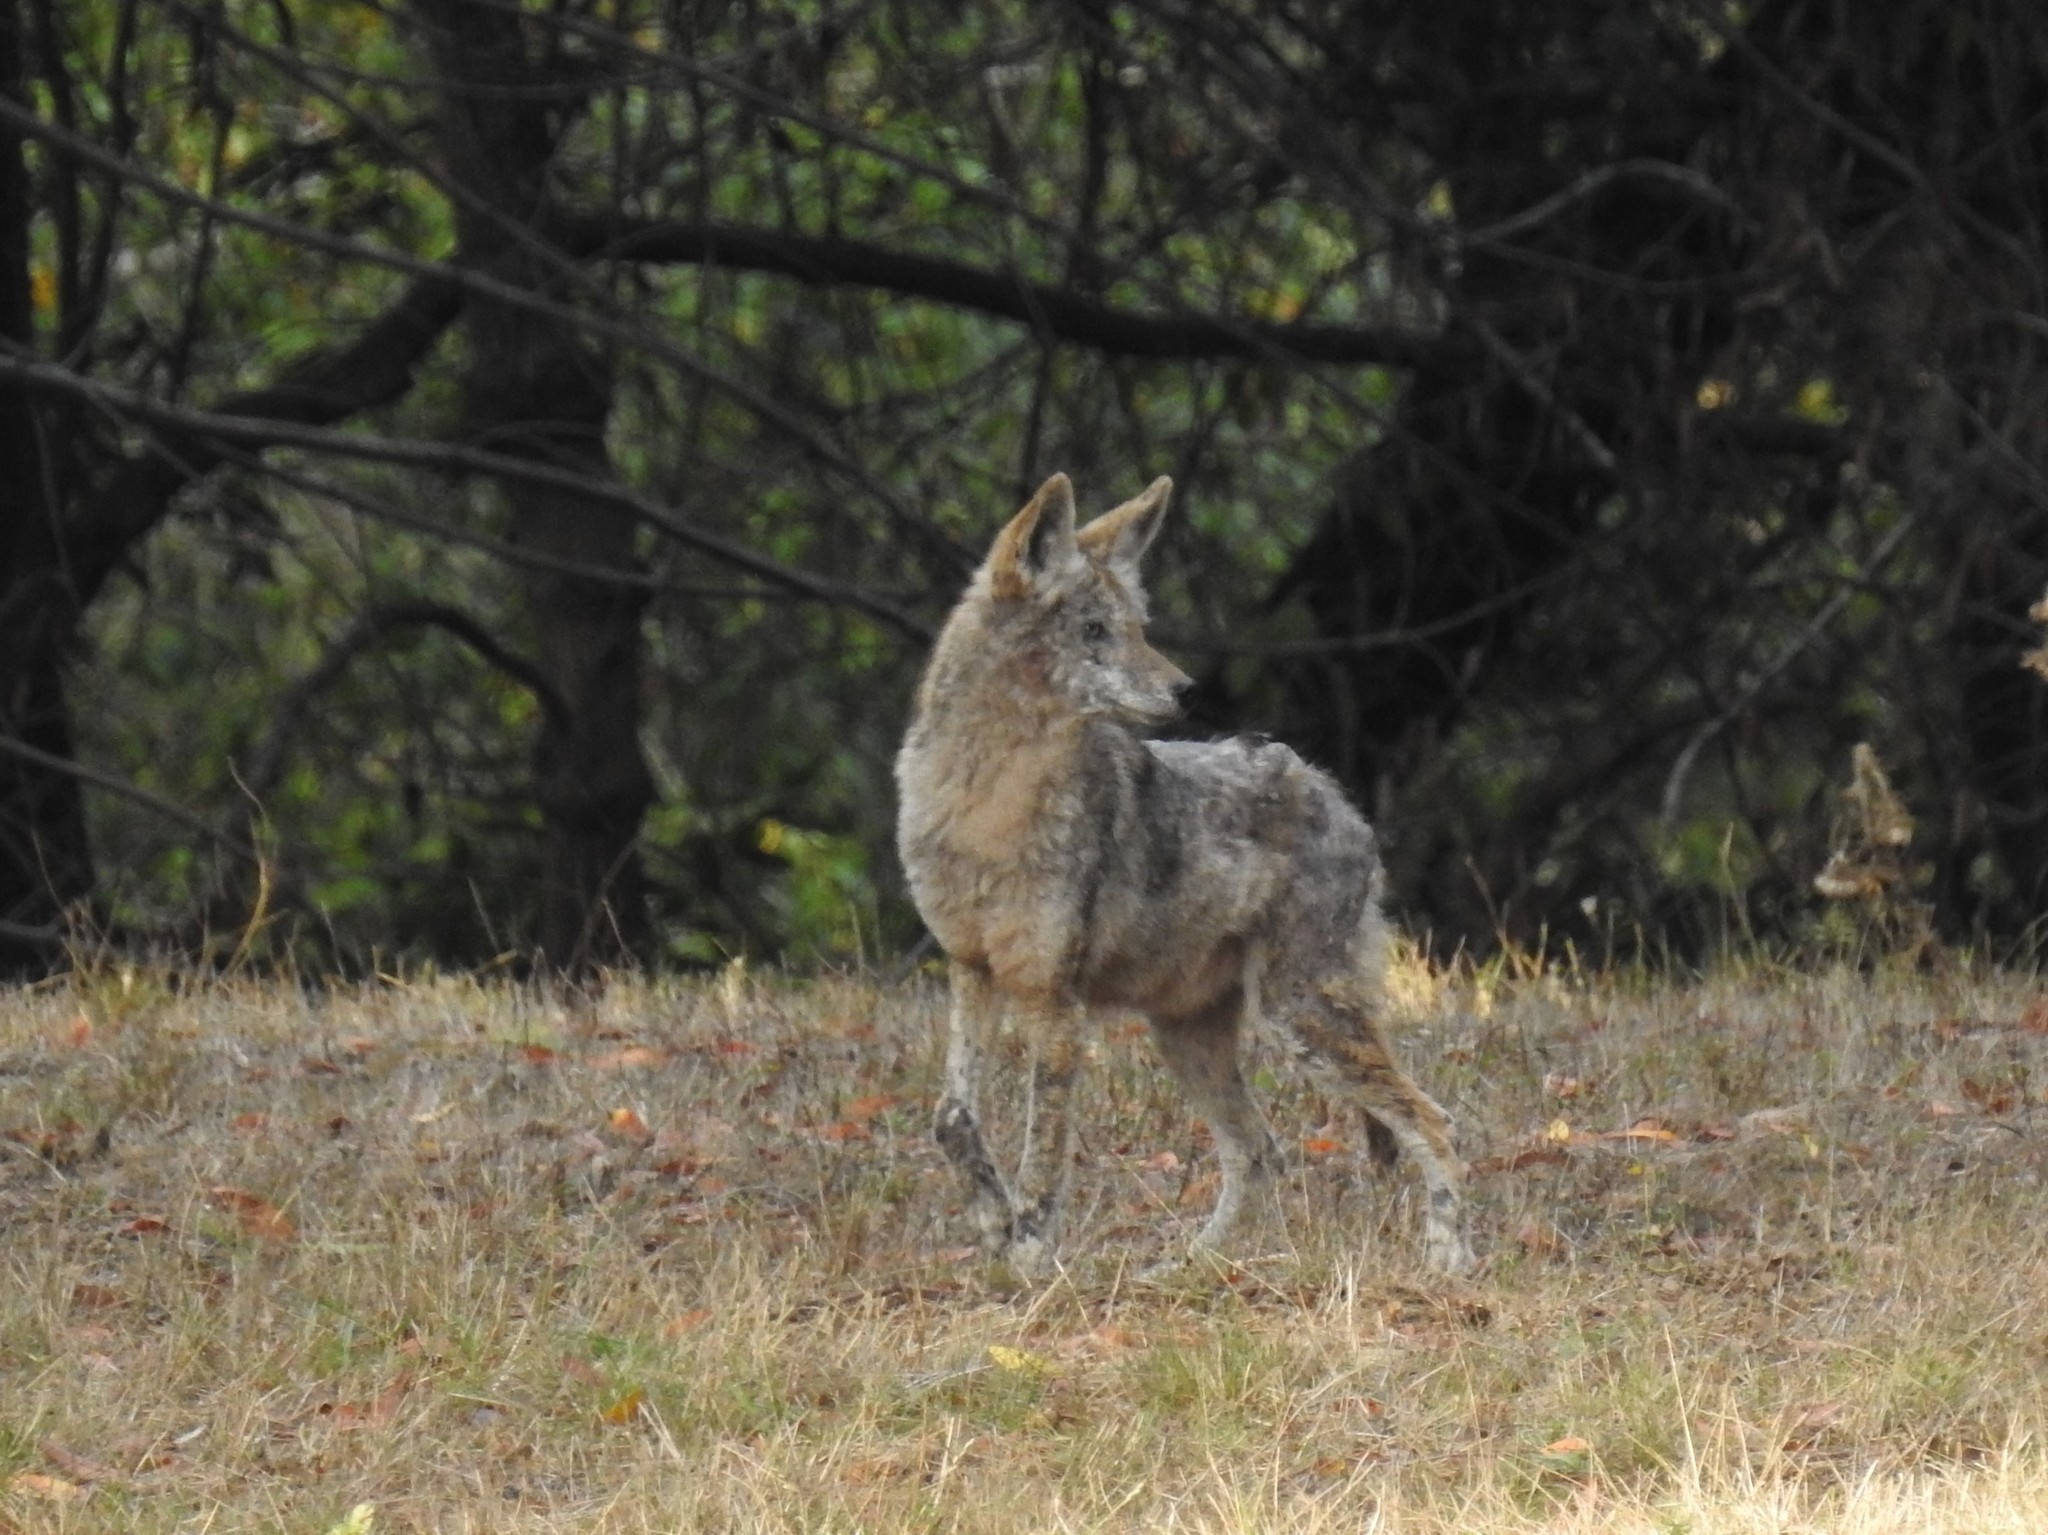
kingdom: Animalia
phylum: Chordata
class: Mammalia
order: Carnivora
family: Canidae
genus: Canis
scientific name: Canis latrans
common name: Coyote
